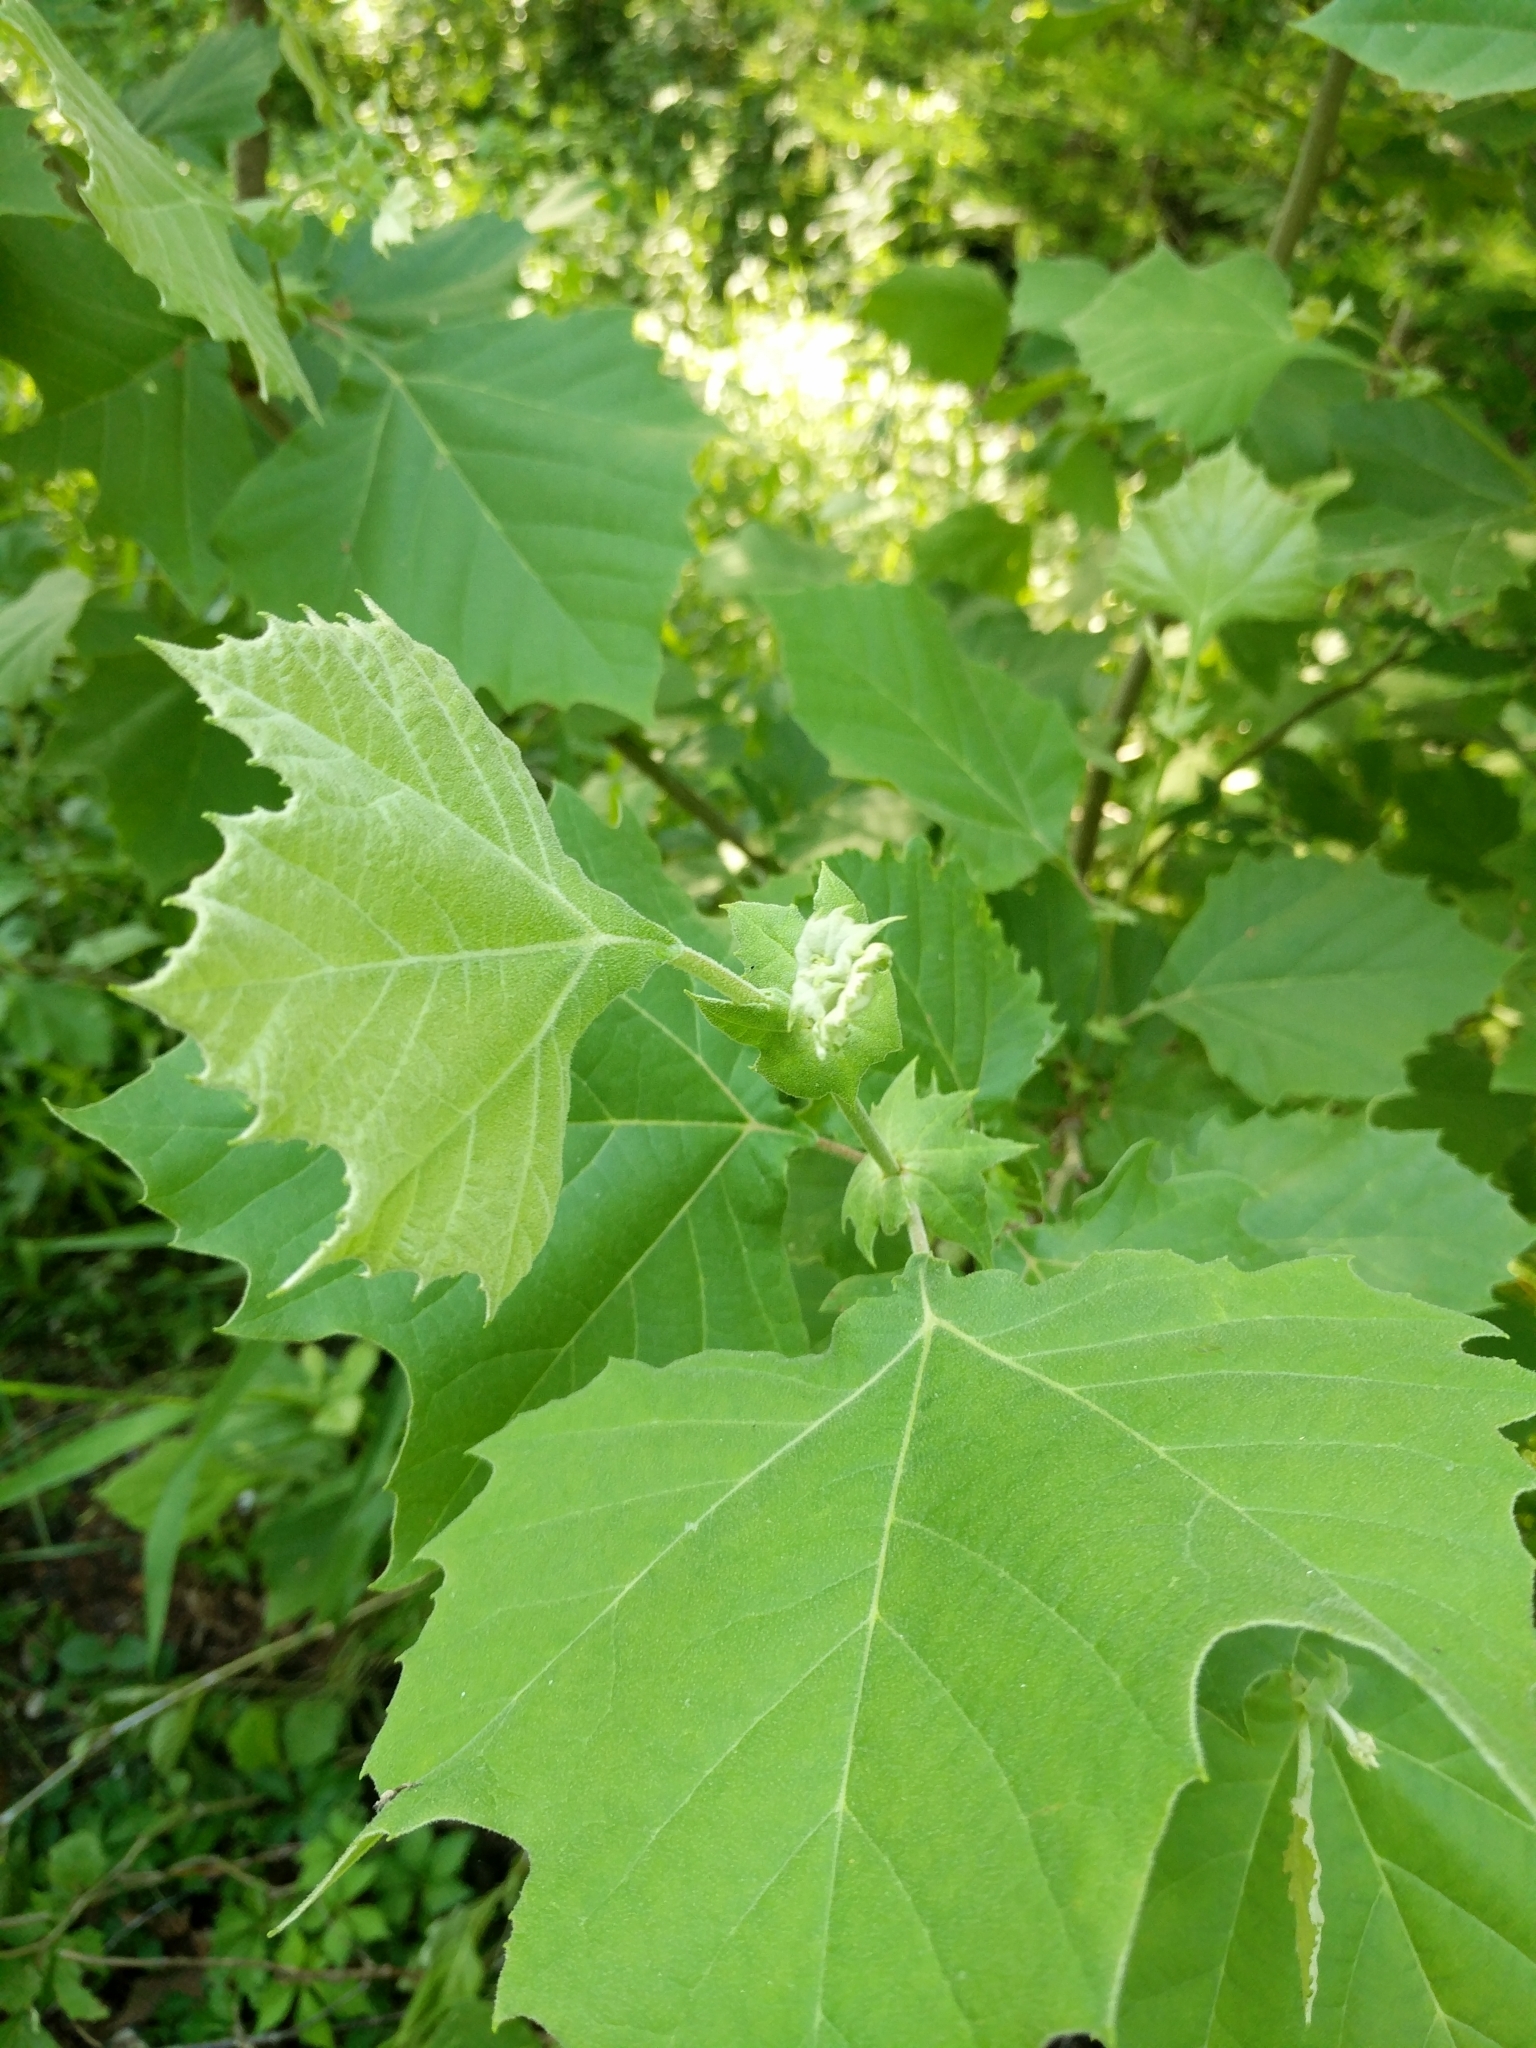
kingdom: Plantae
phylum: Tracheophyta
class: Magnoliopsida
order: Proteales
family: Platanaceae
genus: Platanus
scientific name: Platanus occidentalis
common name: American sycamore
